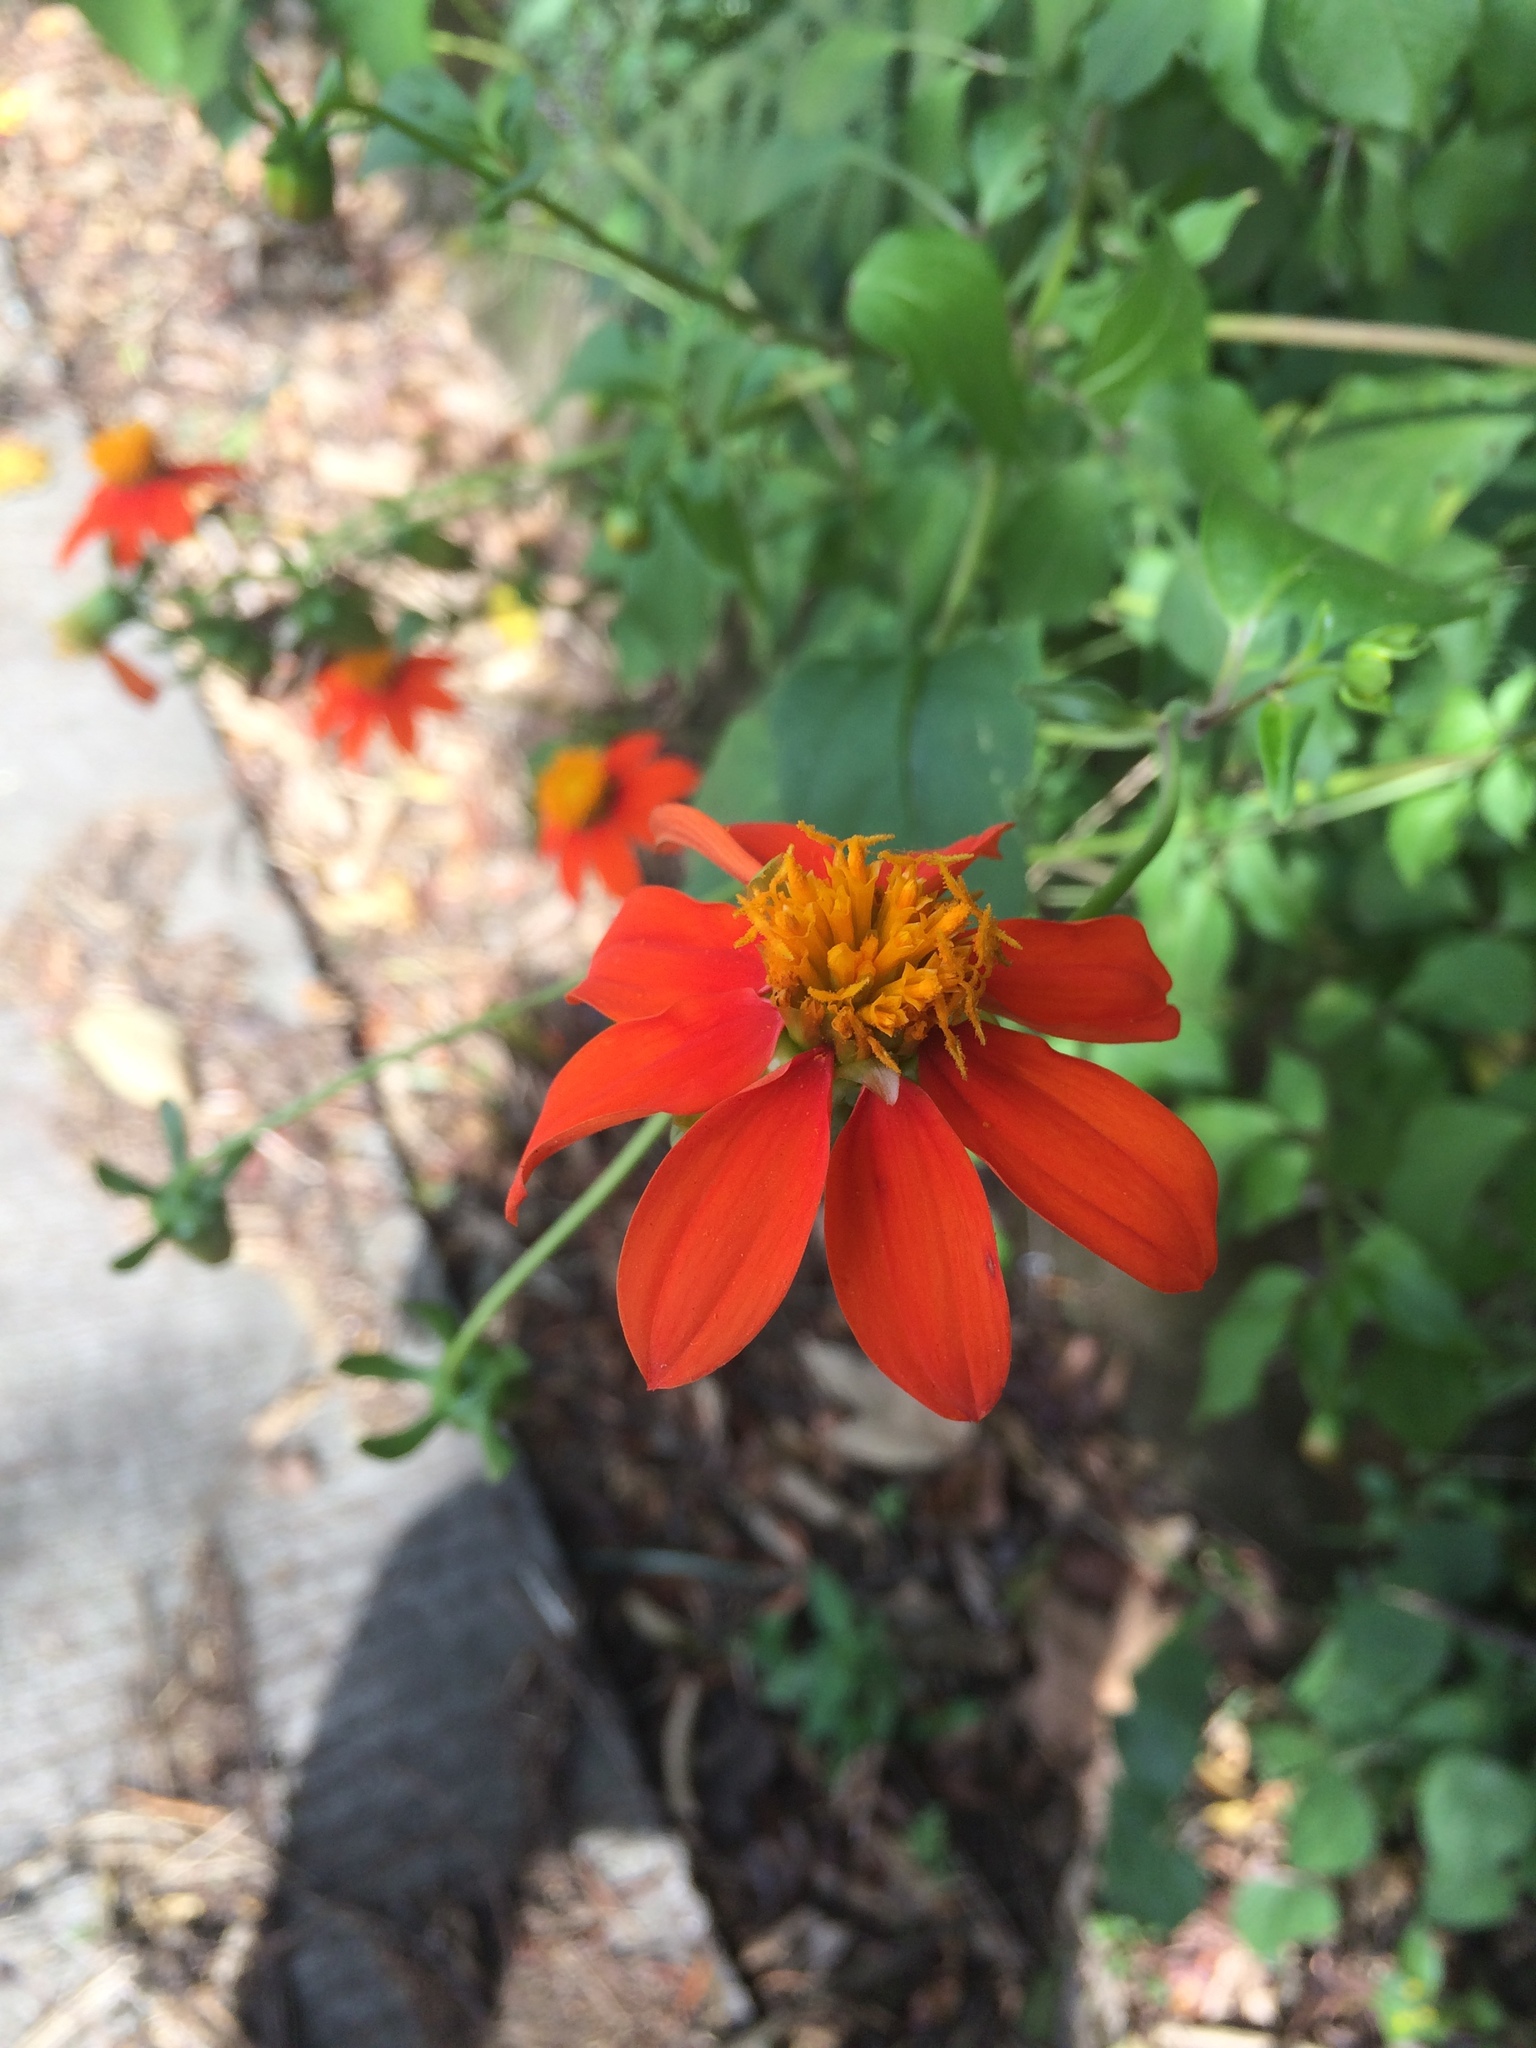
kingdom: Plantae
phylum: Tracheophyta
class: Magnoliopsida
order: Asterales
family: Asteraceae
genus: Dahlia
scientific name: Dahlia coccinea
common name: Red dahlia
